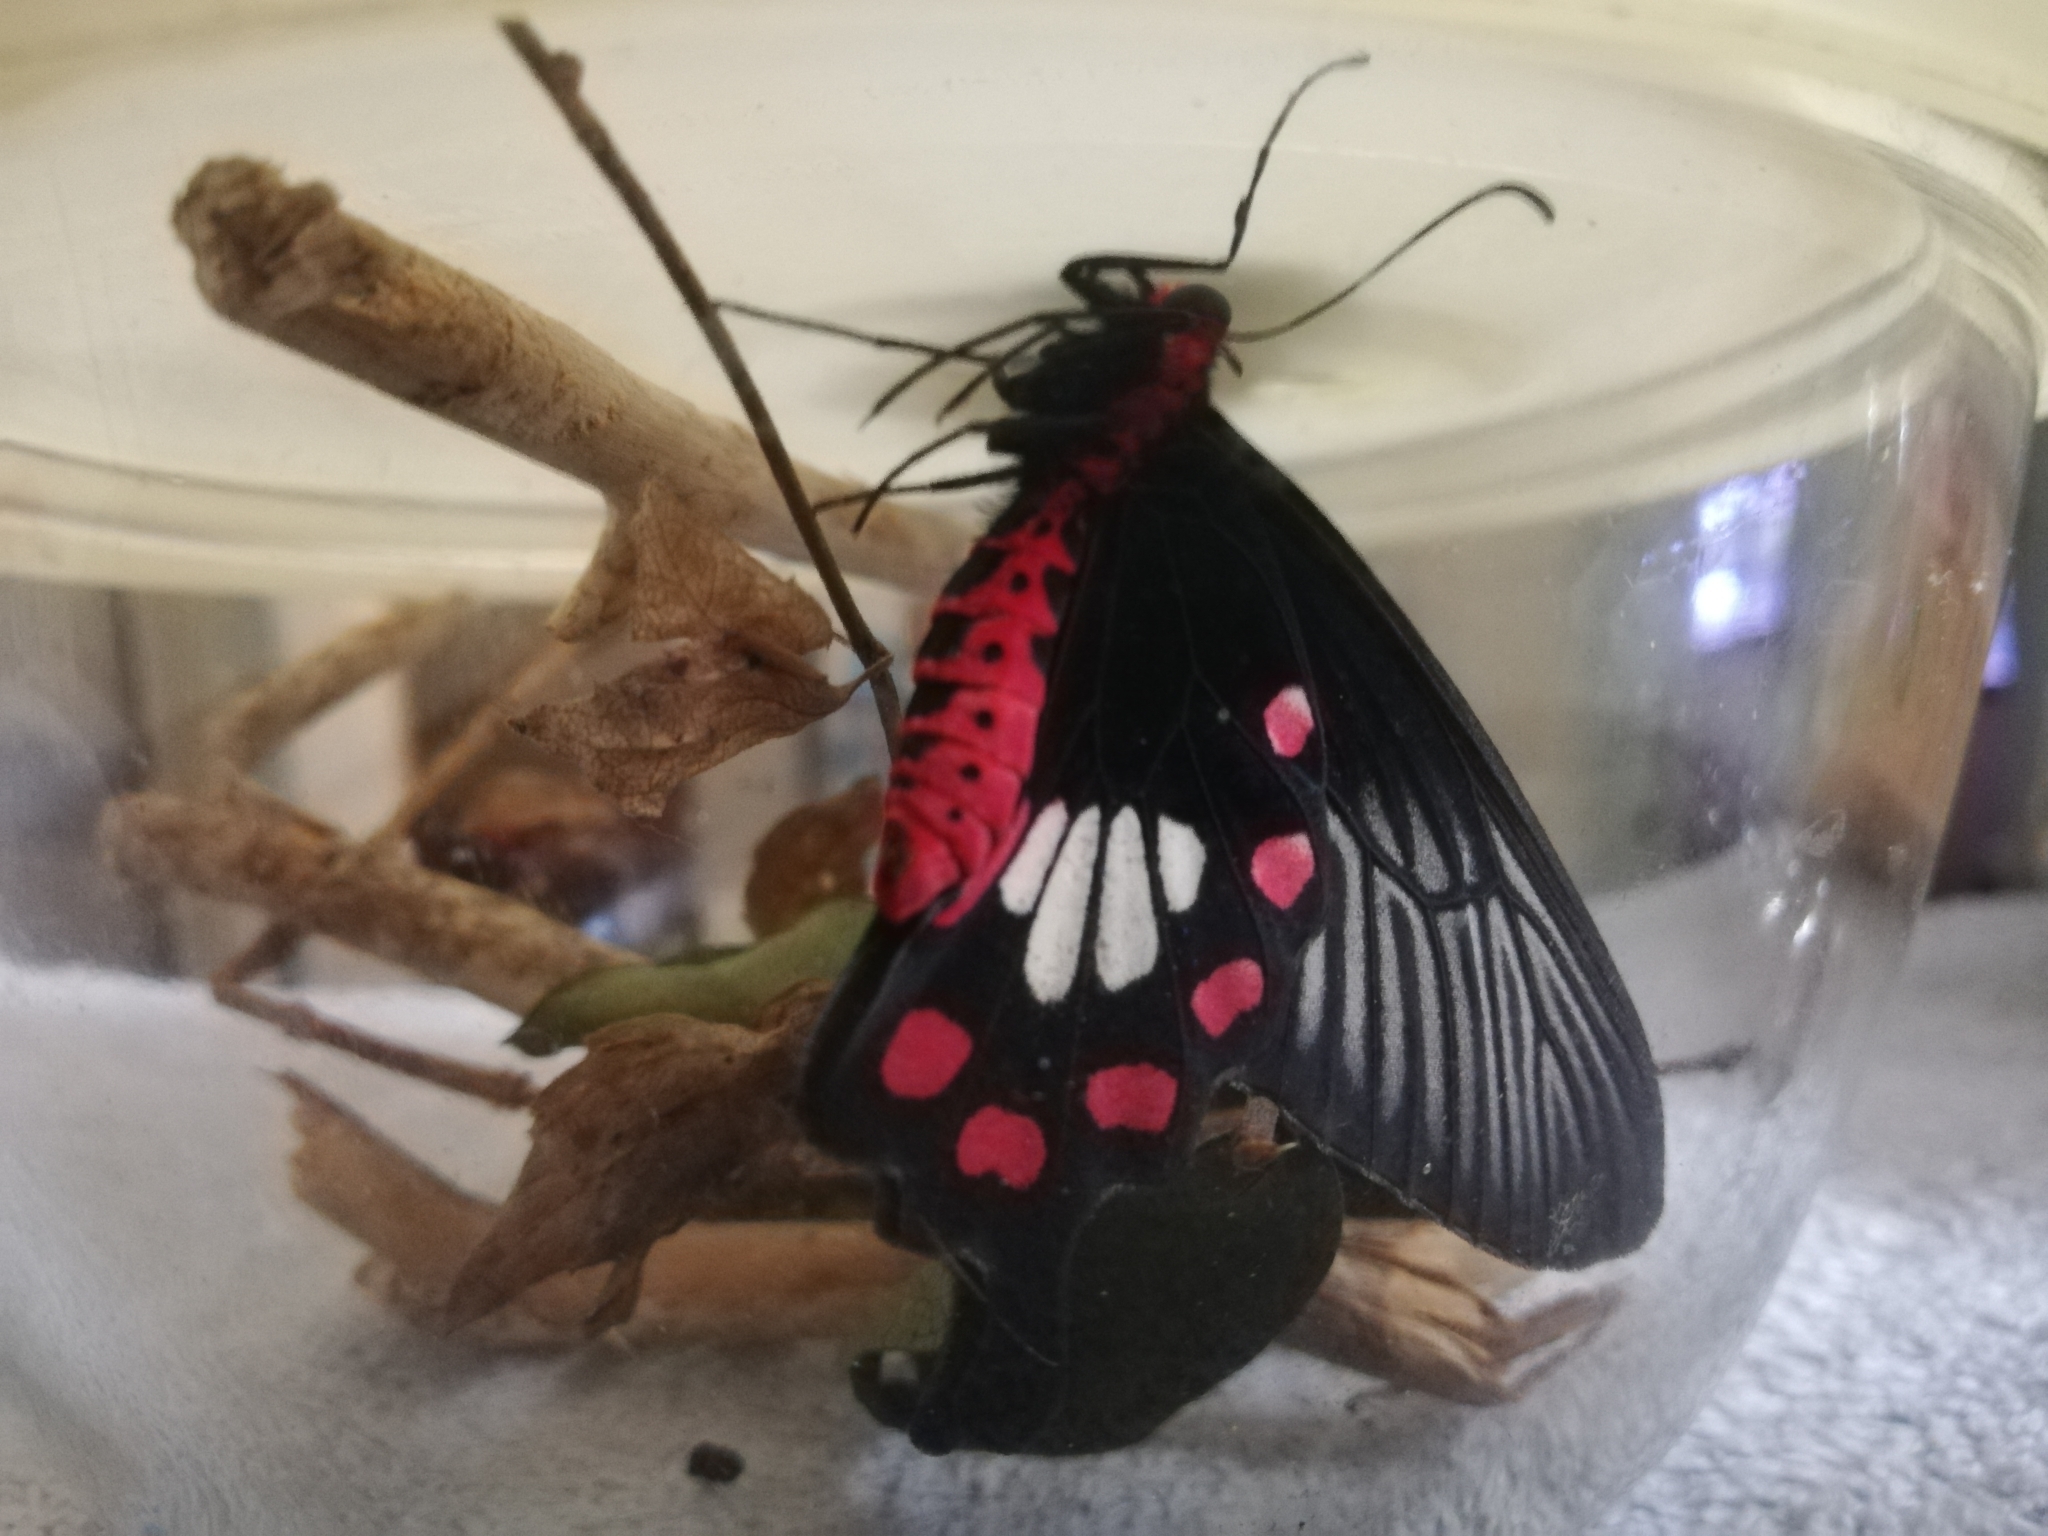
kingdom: Animalia
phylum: Arthropoda
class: Insecta
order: Lepidoptera
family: Papilionidae
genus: Pachliopta
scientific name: Pachliopta aristolochiae
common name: Common rose
